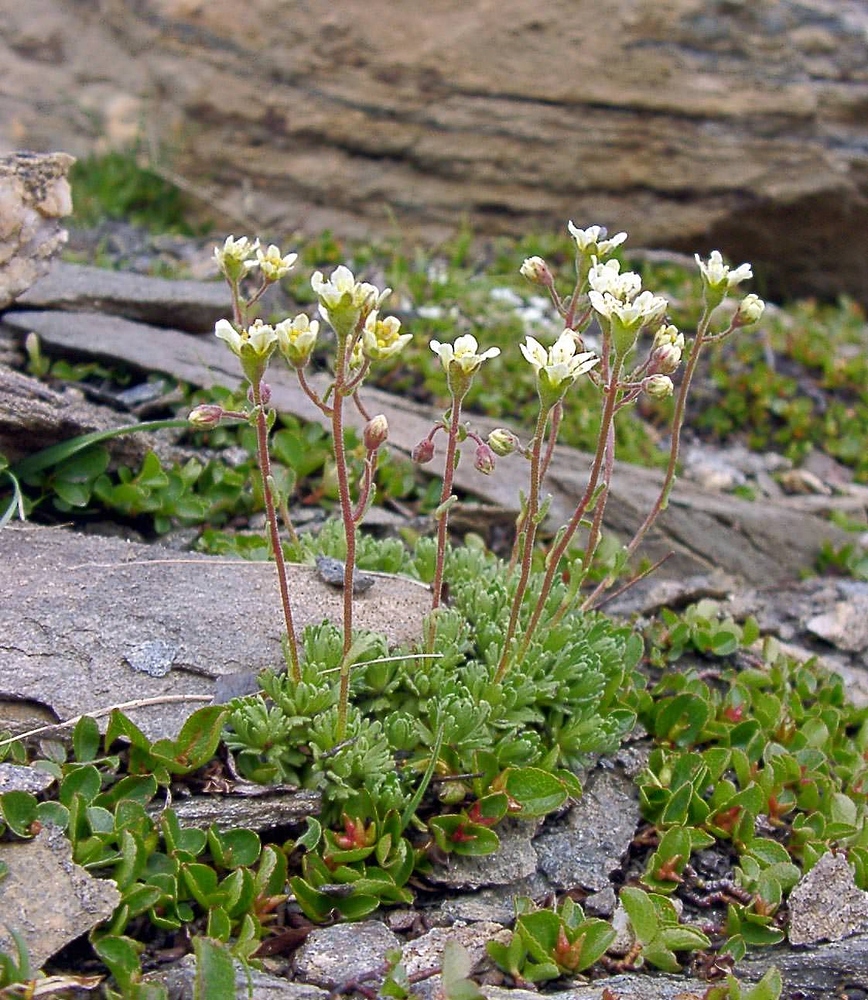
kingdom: Plantae
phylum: Tracheophyta
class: Magnoliopsida
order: Saxifragales
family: Saxifragaceae
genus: Saxifraga
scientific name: Saxifraga exarata
